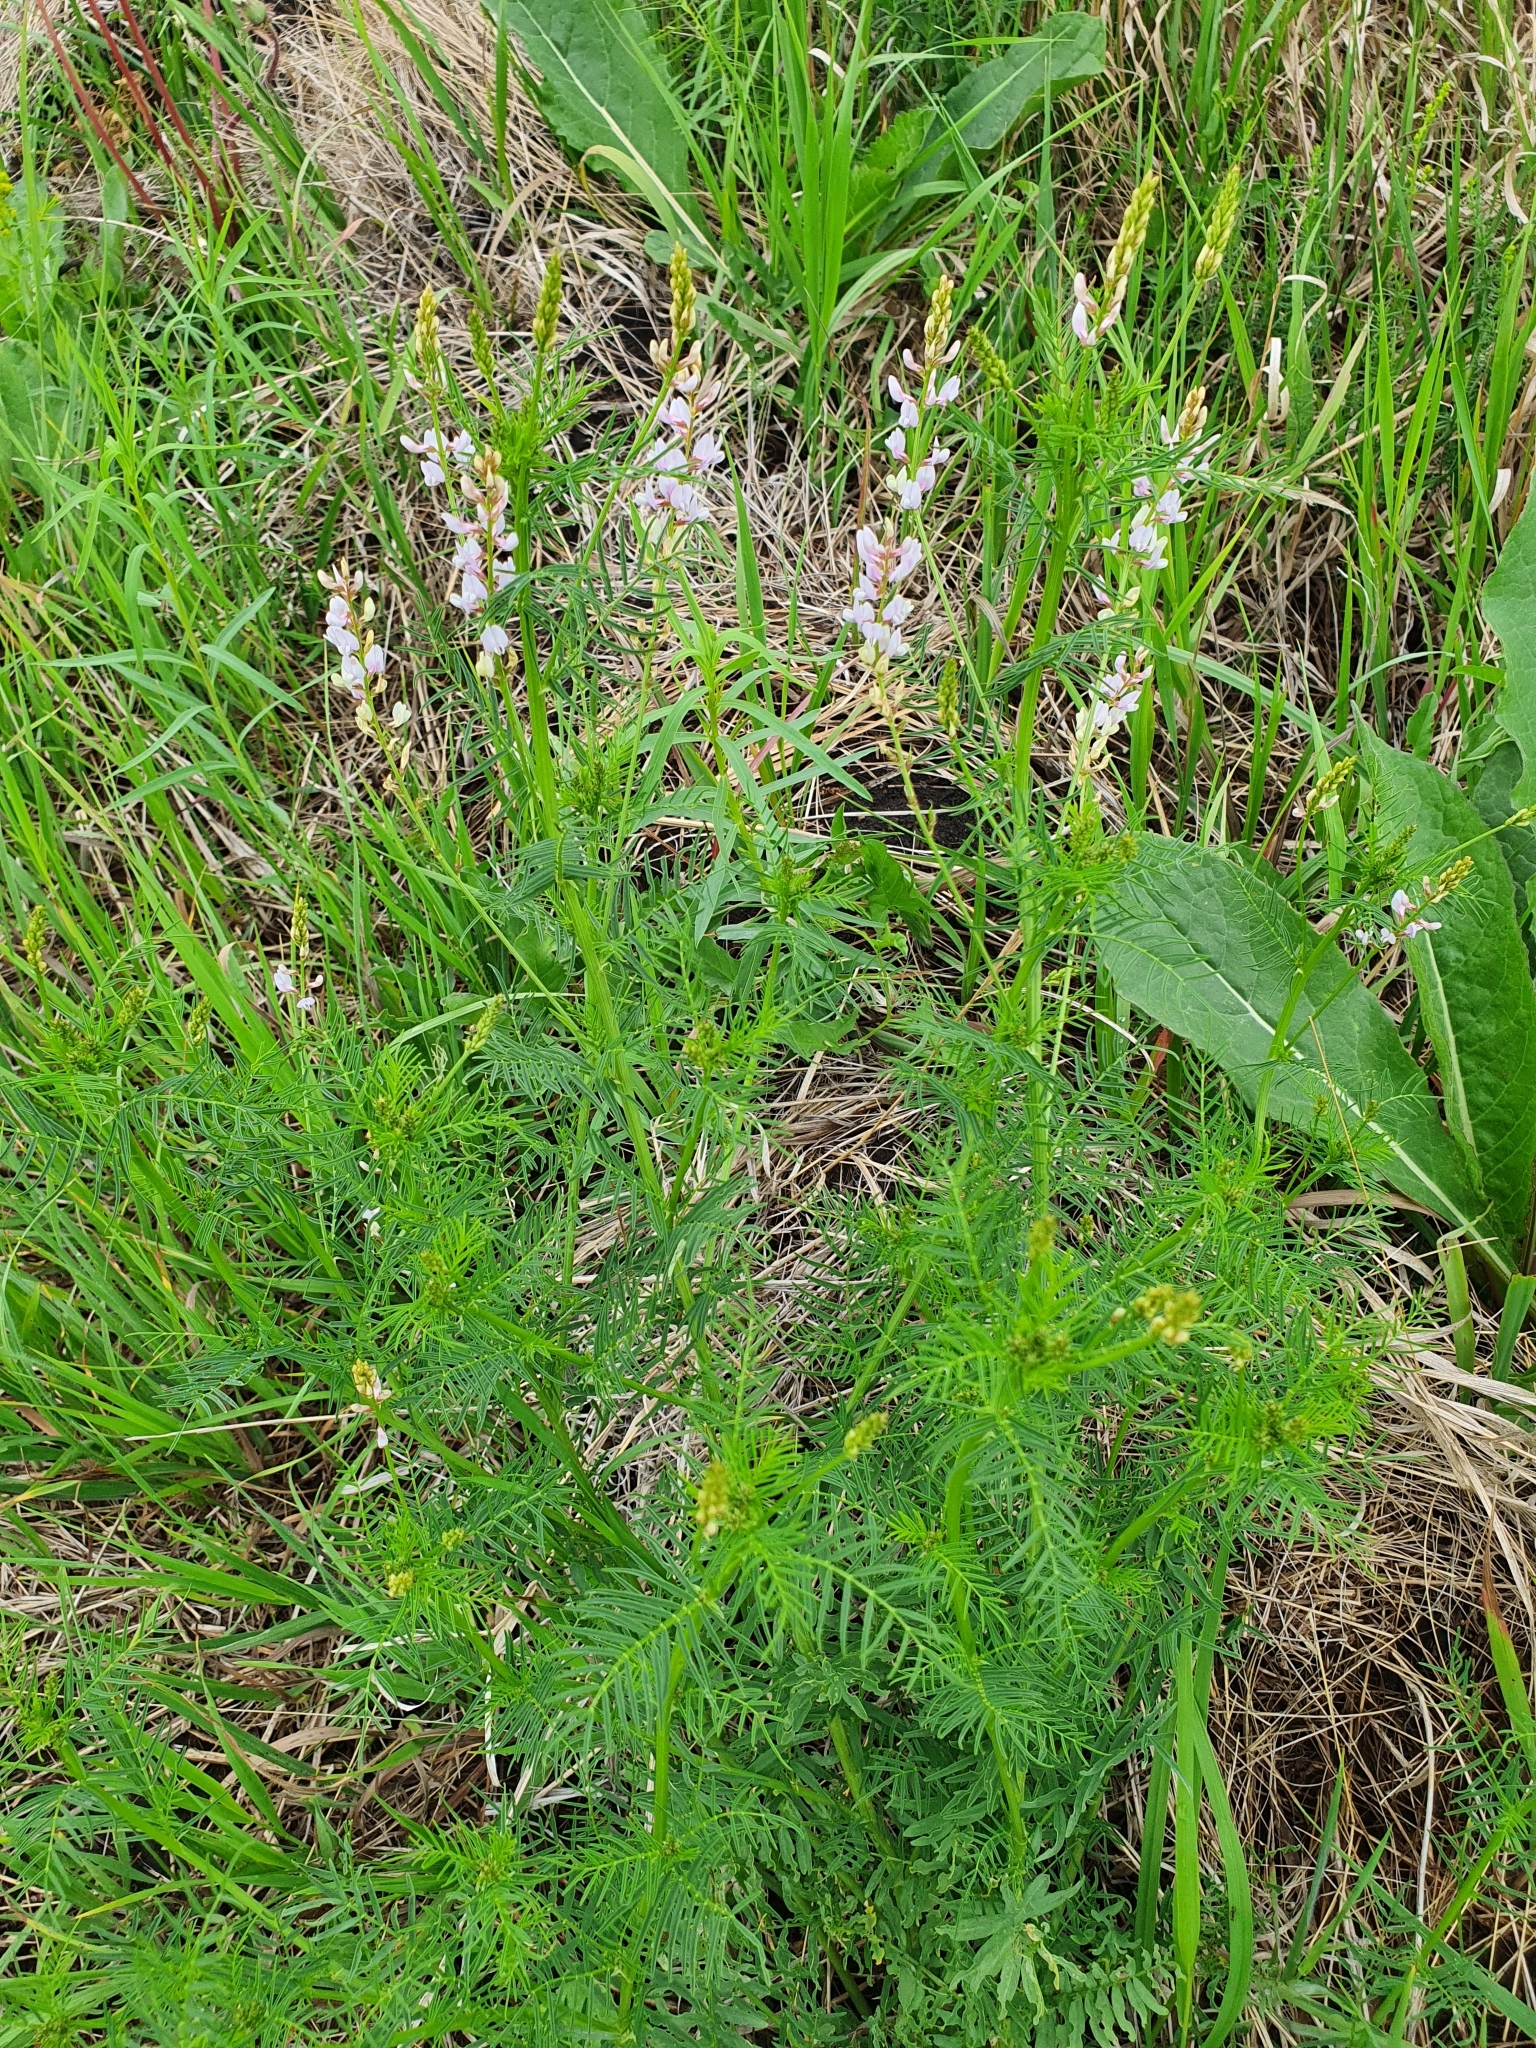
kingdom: Plantae
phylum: Tracheophyta
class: Magnoliopsida
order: Fabales
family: Fabaceae
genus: Astragalus
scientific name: Astragalus sulcatus
